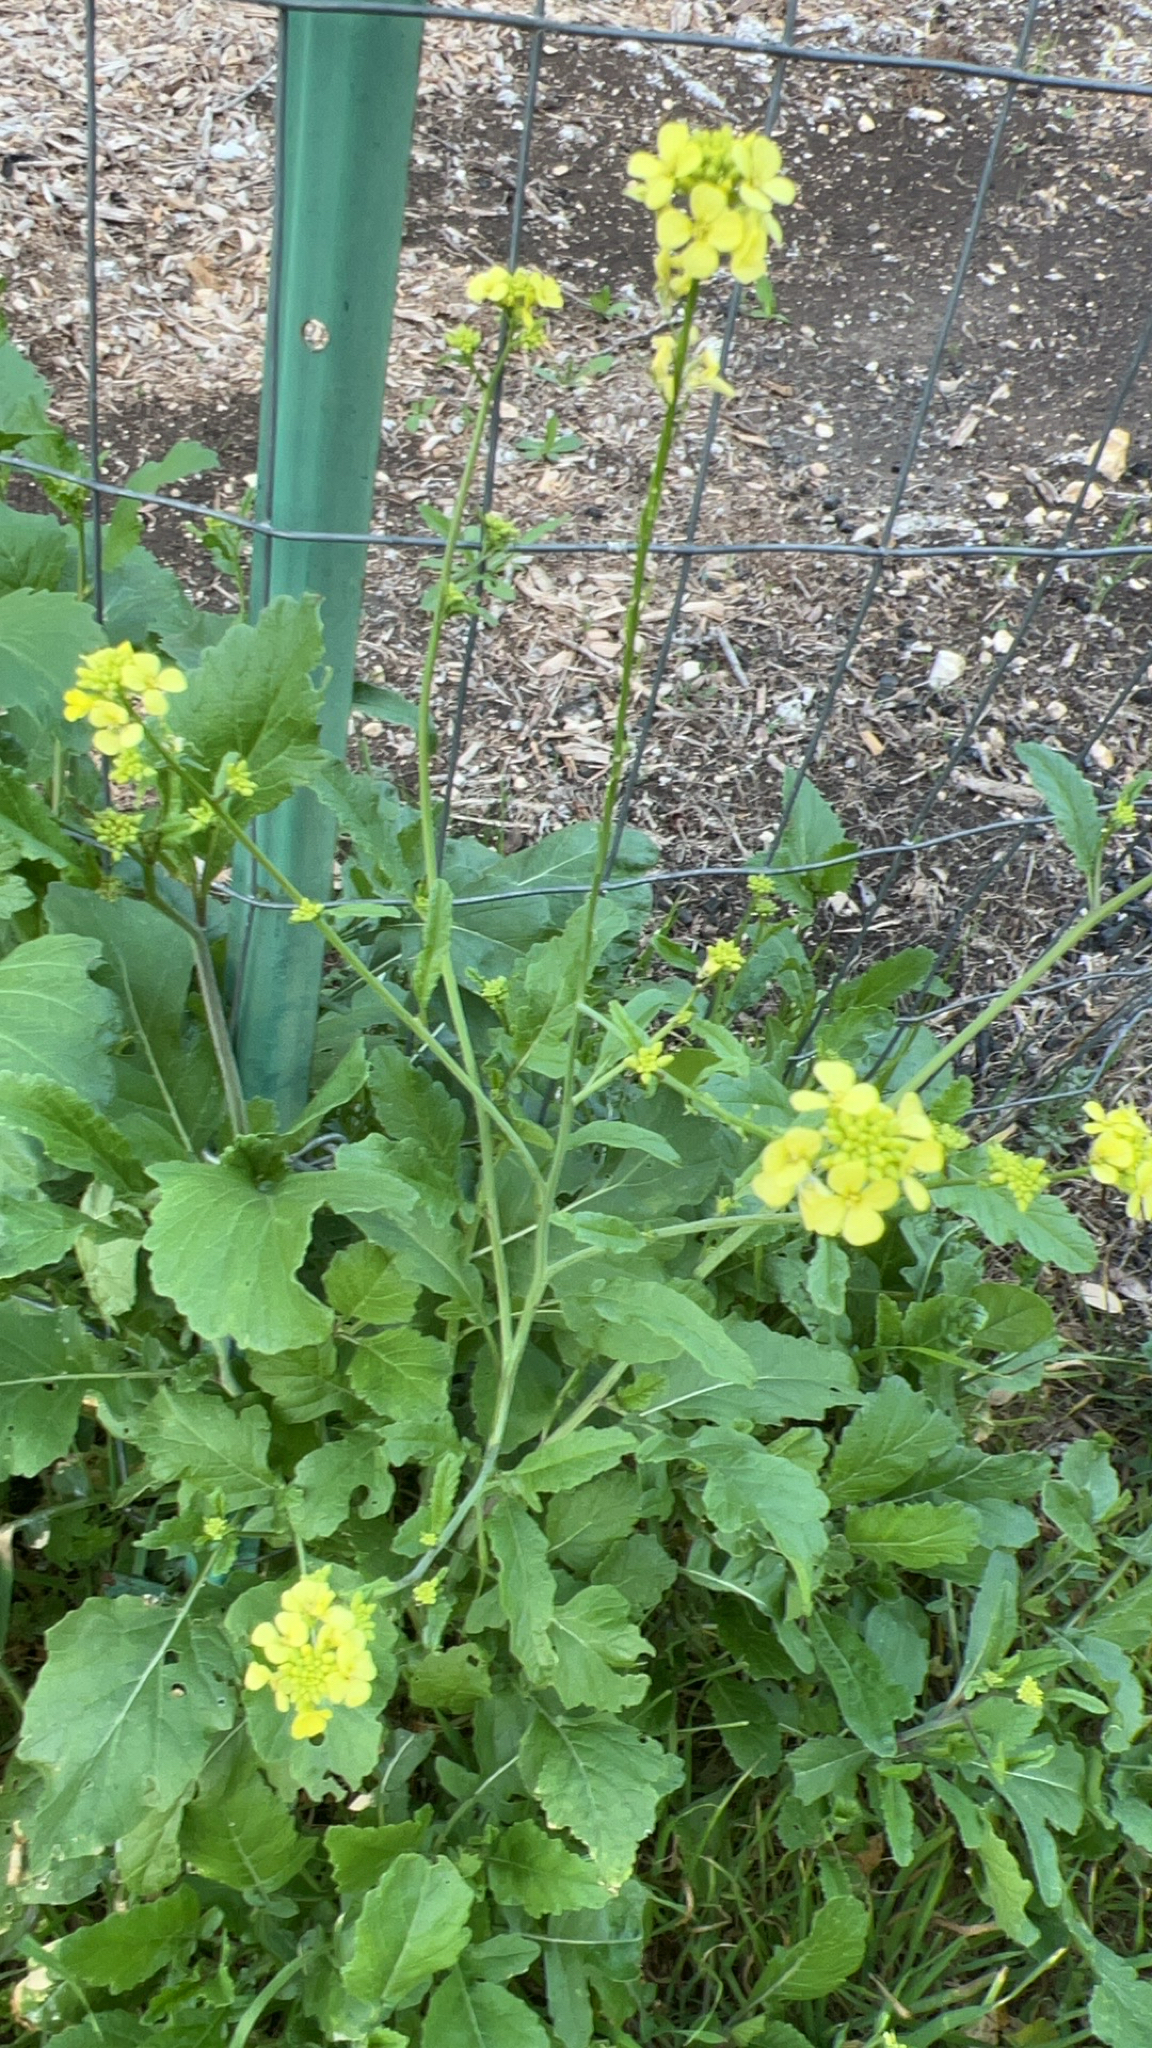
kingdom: Plantae
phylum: Tracheophyta
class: Magnoliopsida
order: Brassicales
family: Brassicaceae
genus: Rapistrum
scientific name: Rapistrum rugosum
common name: Annual bastardcabbage
